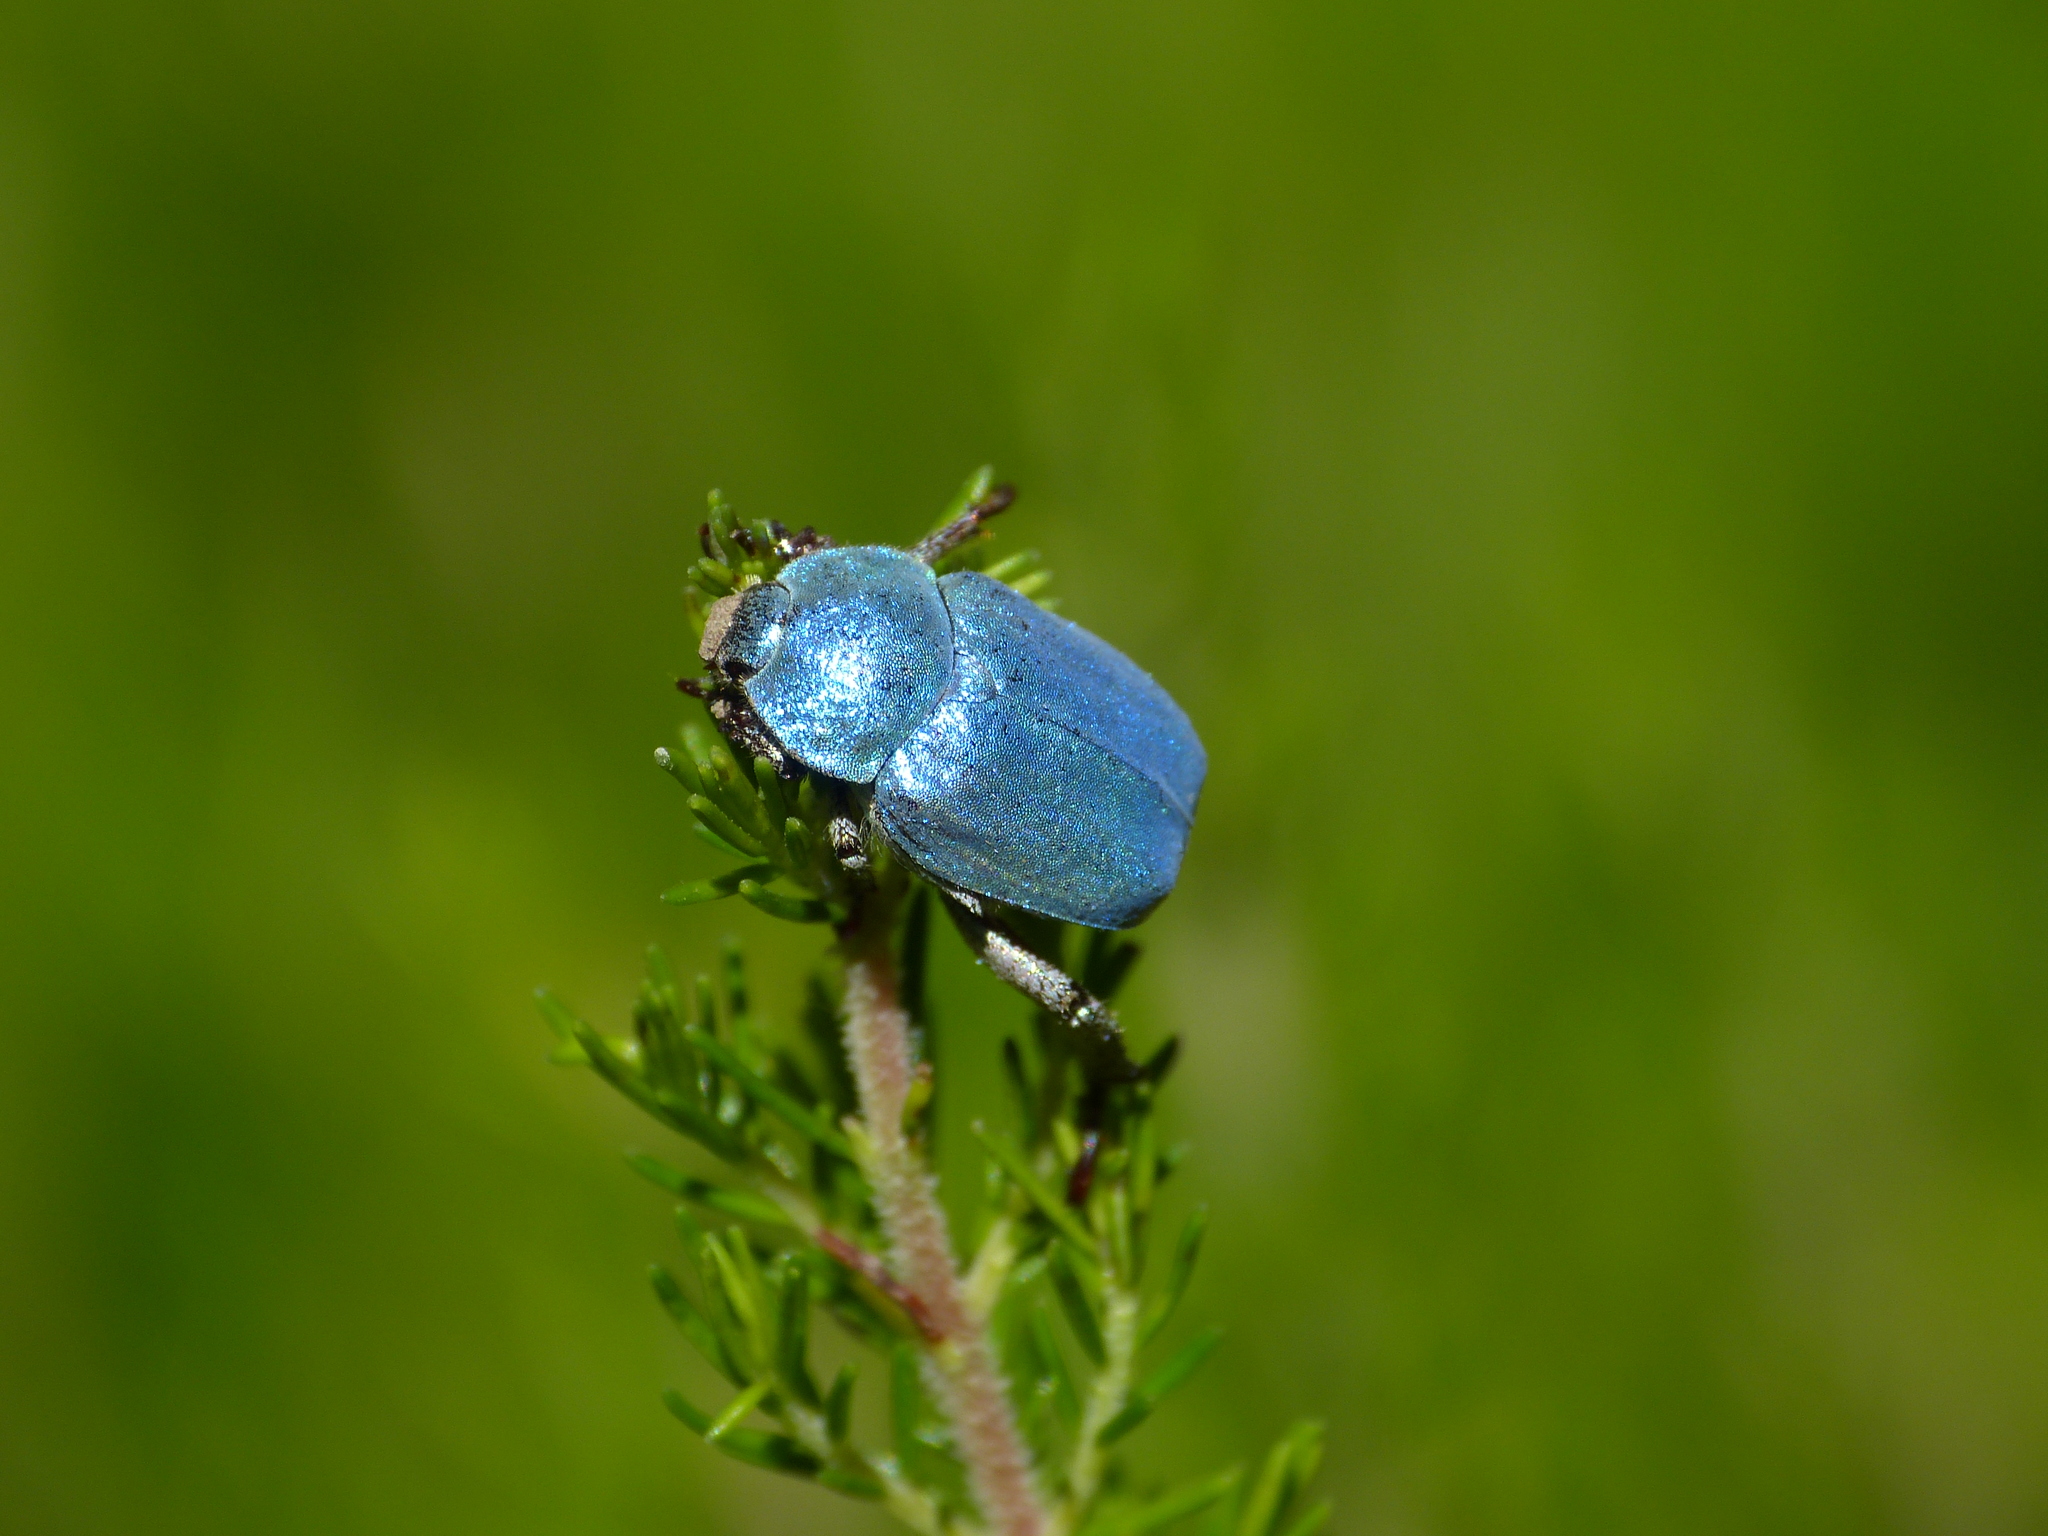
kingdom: Animalia
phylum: Arthropoda
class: Insecta
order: Coleoptera
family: Scarabaeidae
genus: Hoplia
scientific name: Hoplia coerulea
